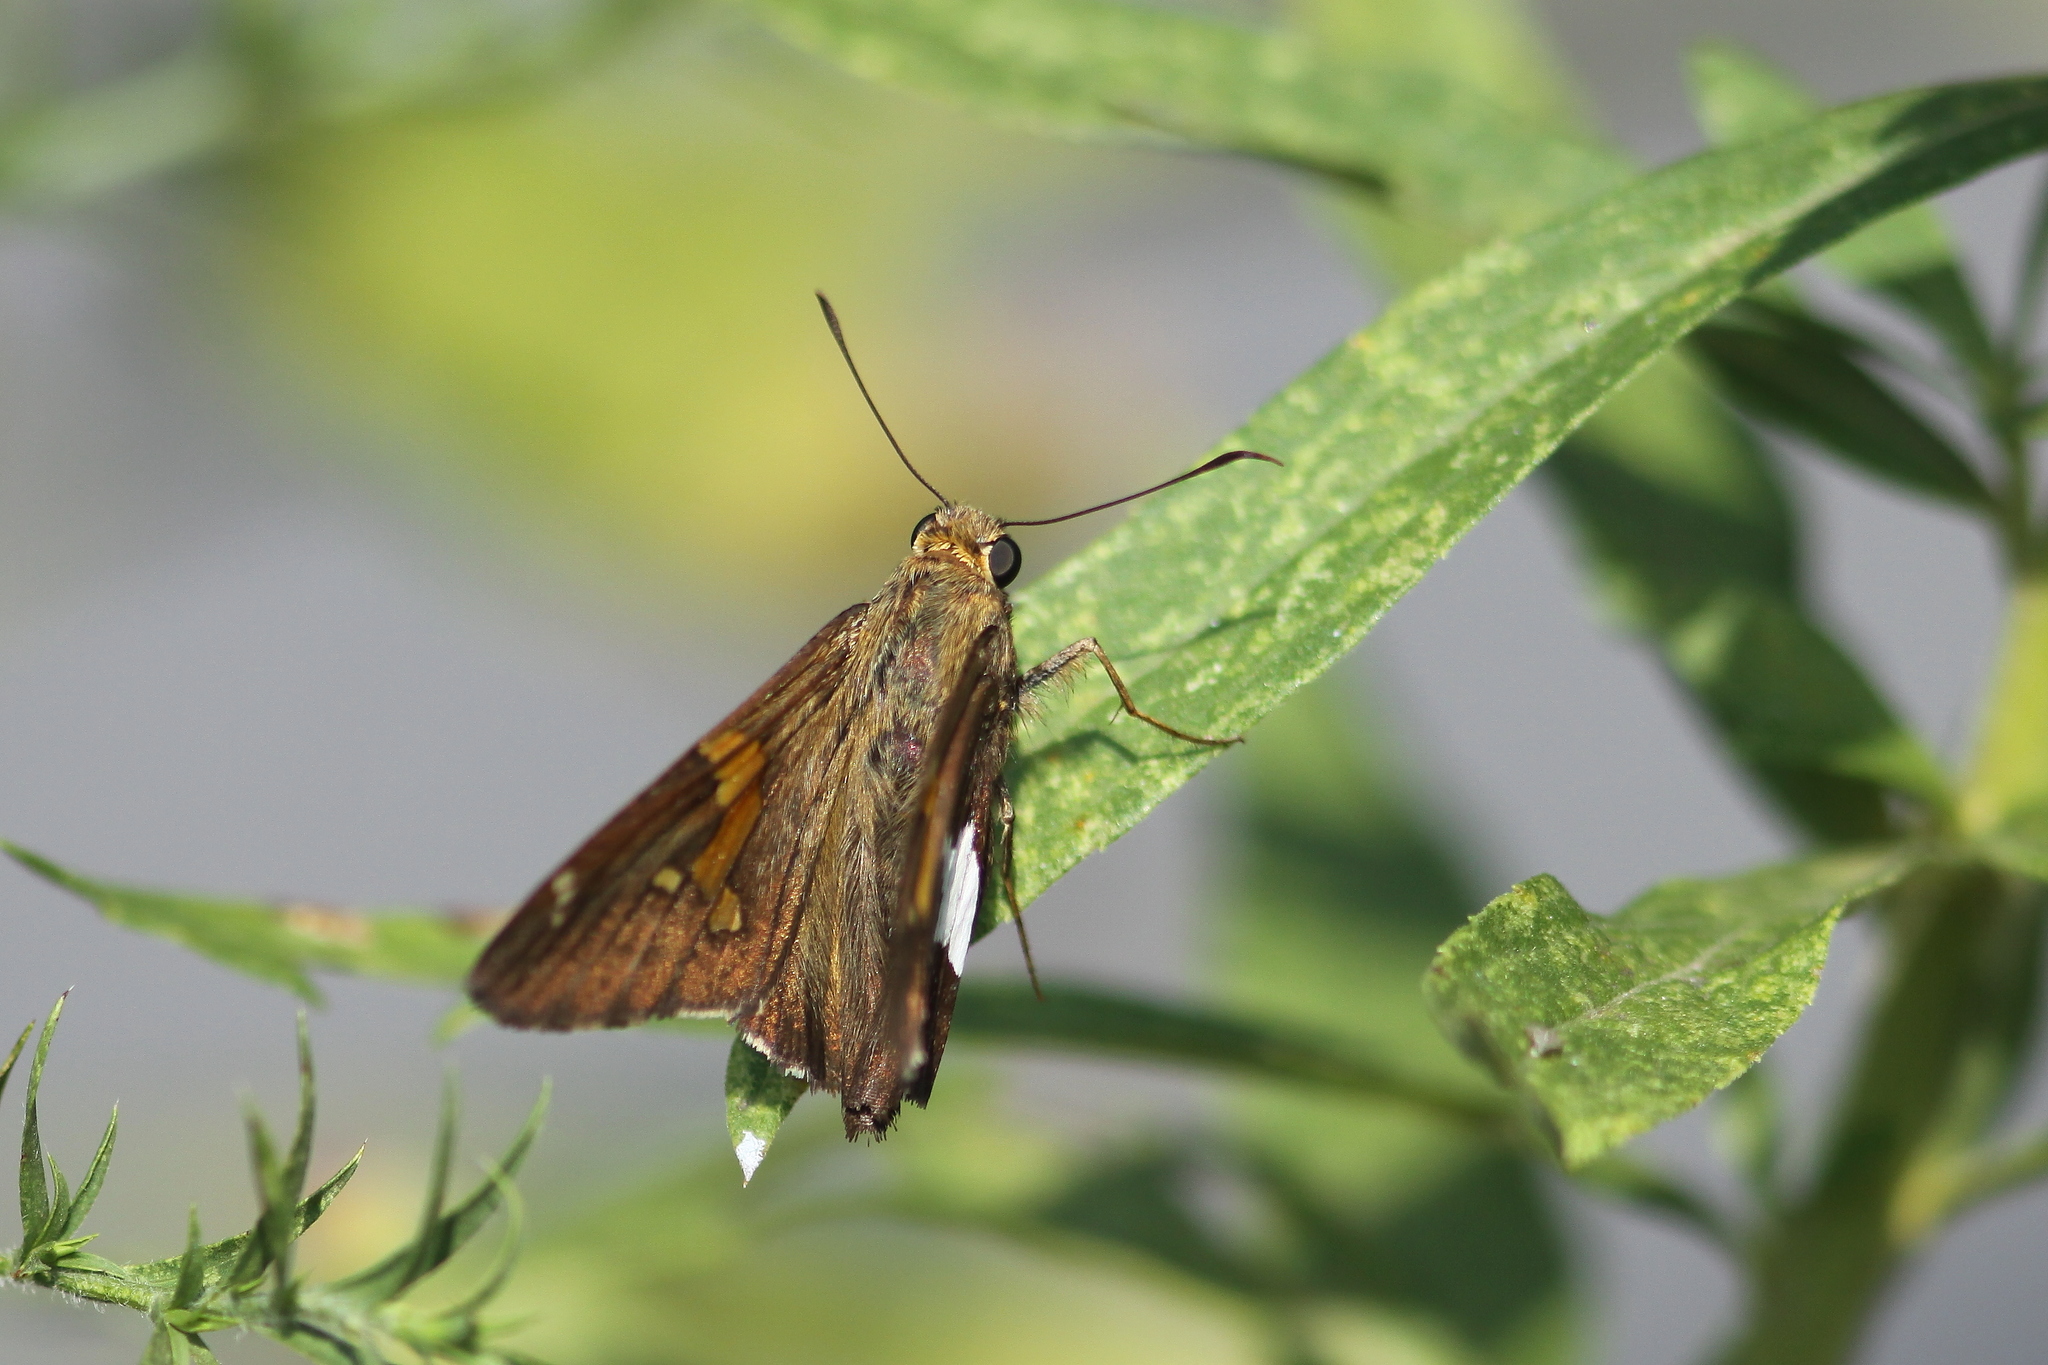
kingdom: Animalia
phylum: Arthropoda
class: Insecta
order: Lepidoptera
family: Hesperiidae
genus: Epargyreus
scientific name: Epargyreus clarus
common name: Silver-spotted skipper
